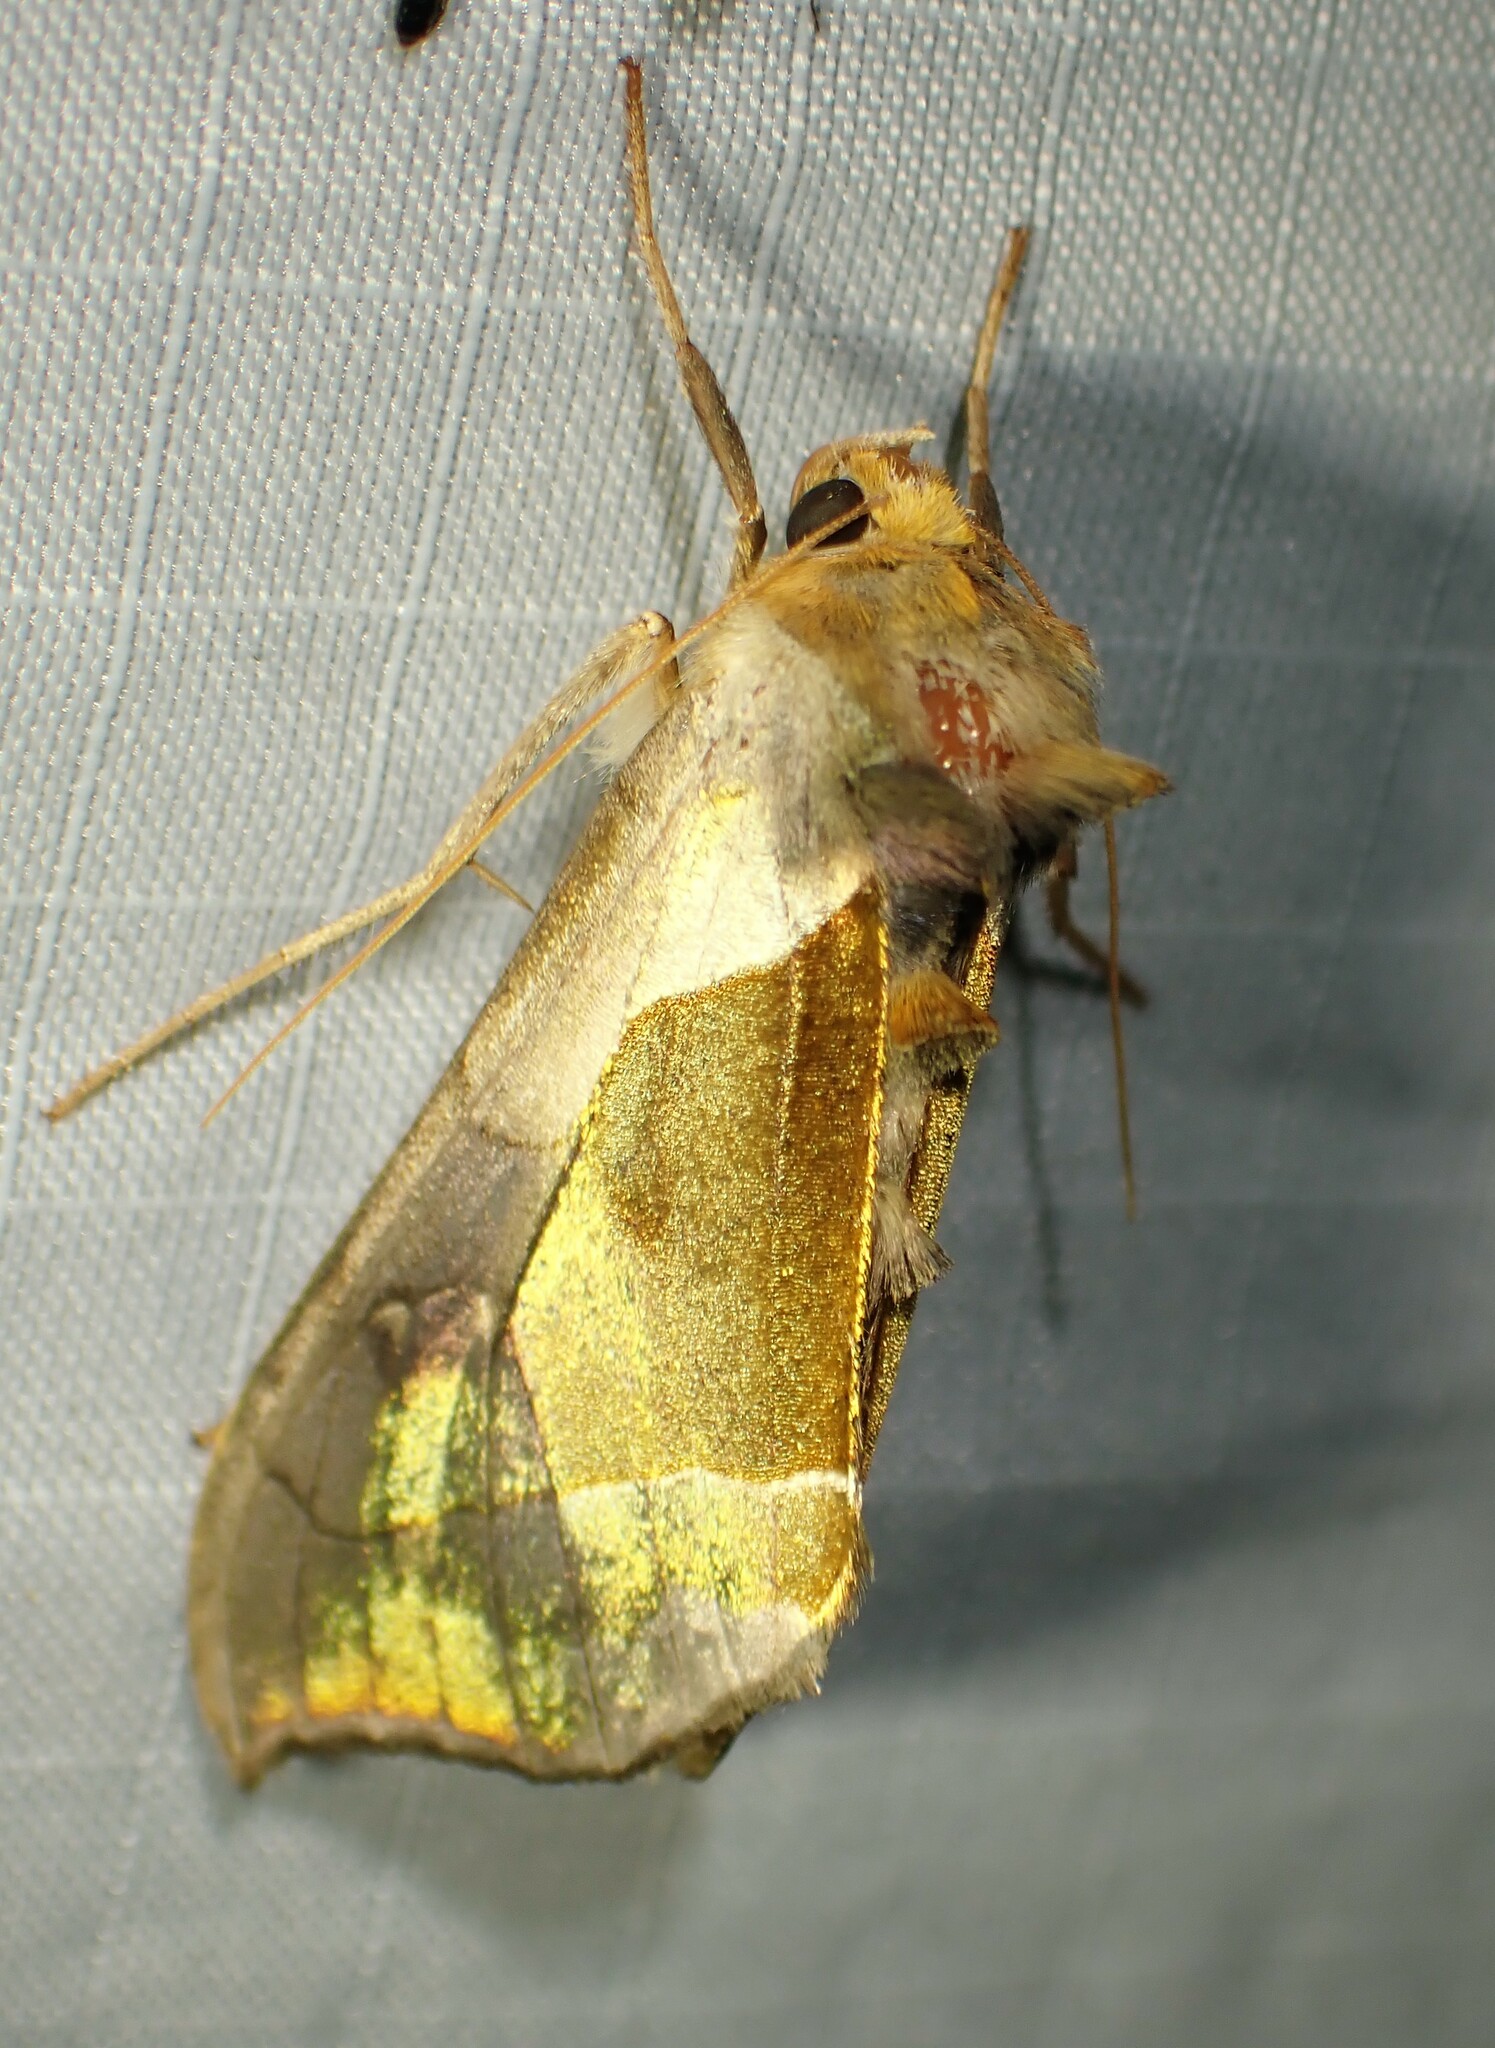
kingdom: Animalia
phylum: Arthropoda
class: Insecta
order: Lepidoptera
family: Noctuidae
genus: Diachrysia
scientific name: Diachrysia balluca
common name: Green-patched looper moth
